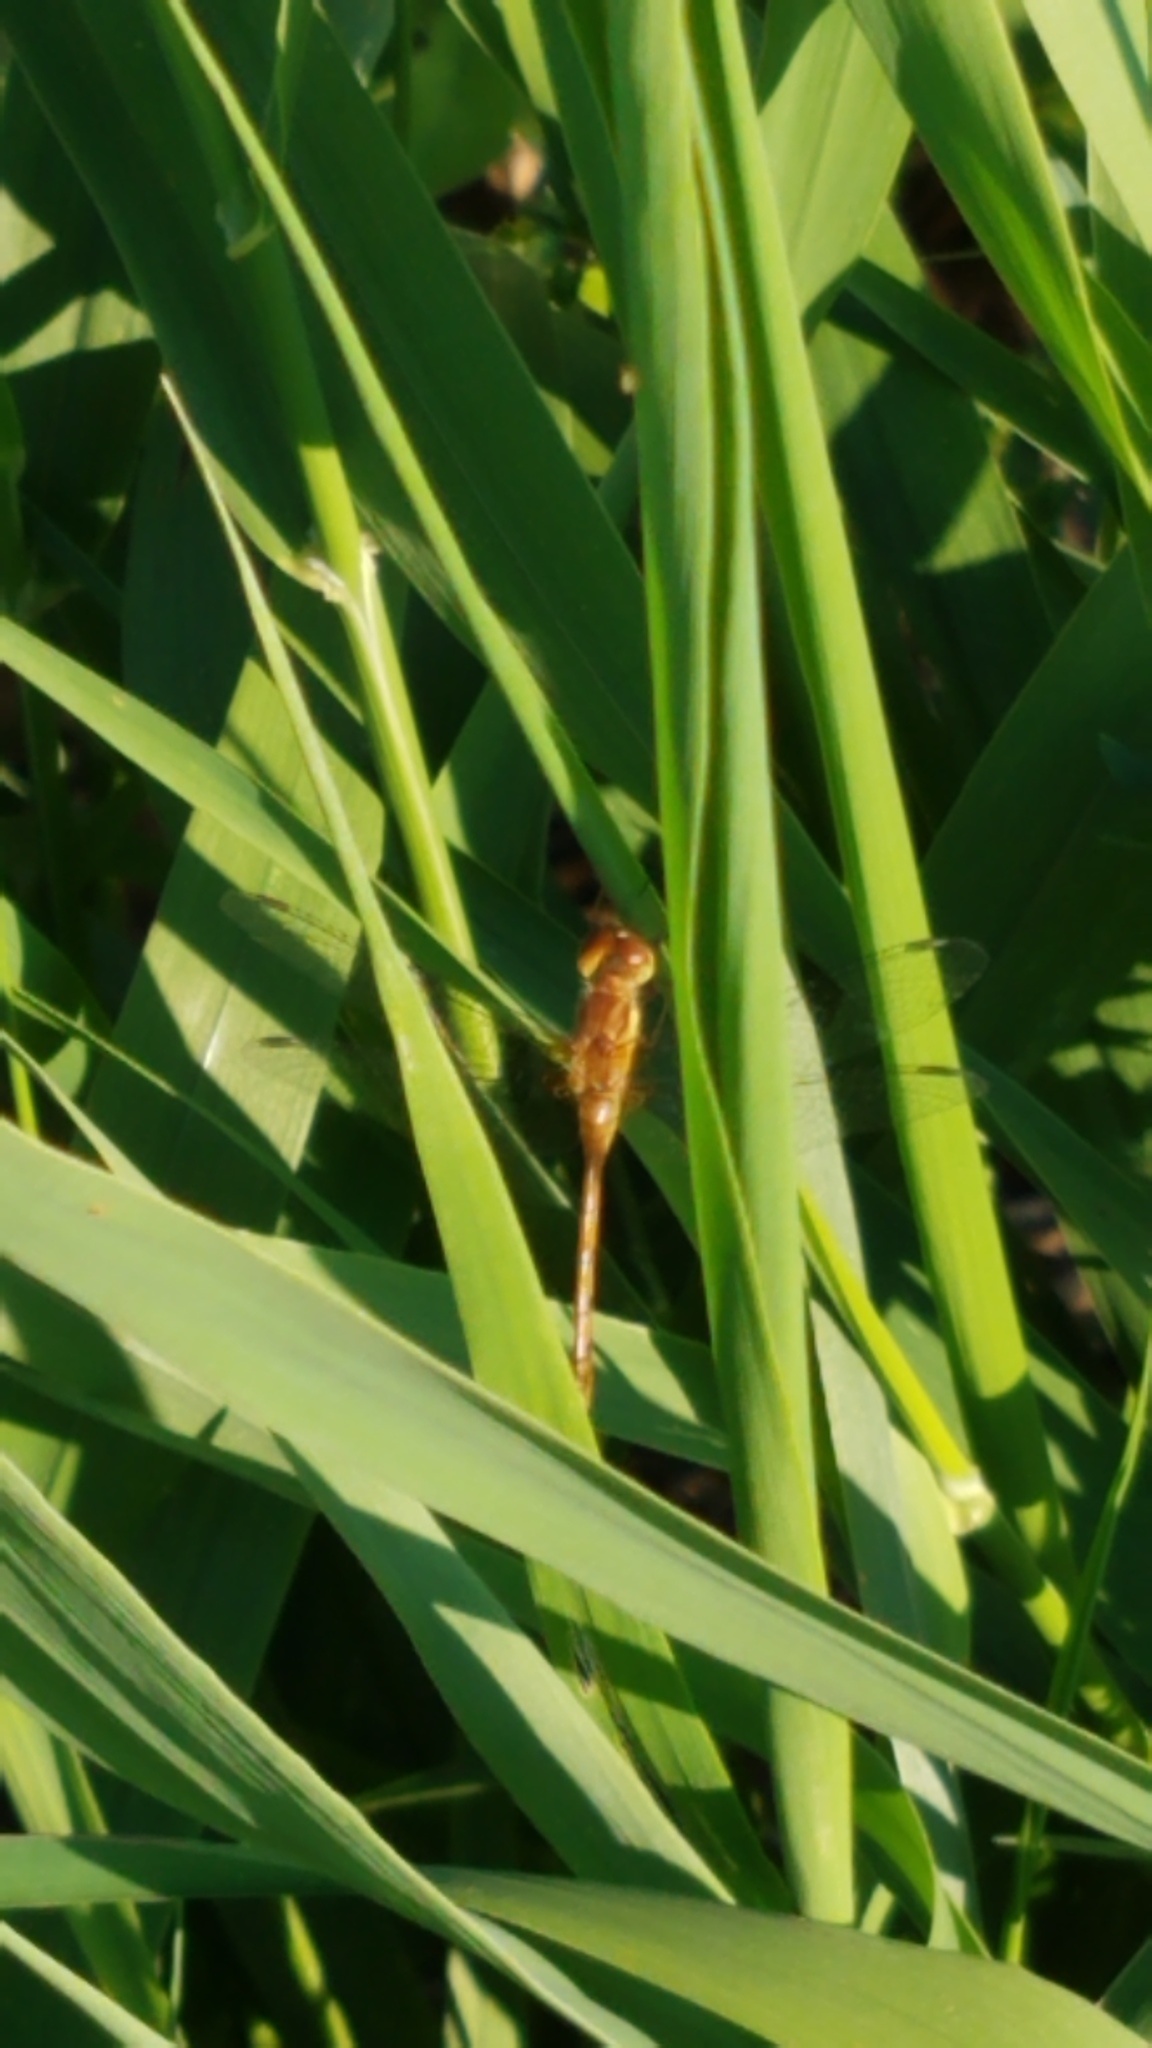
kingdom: Animalia
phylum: Arthropoda
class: Insecta
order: Odonata
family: Libellulidae
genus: Sympetrum
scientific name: Sympetrum vicinum
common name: Autumn meadowhawk
